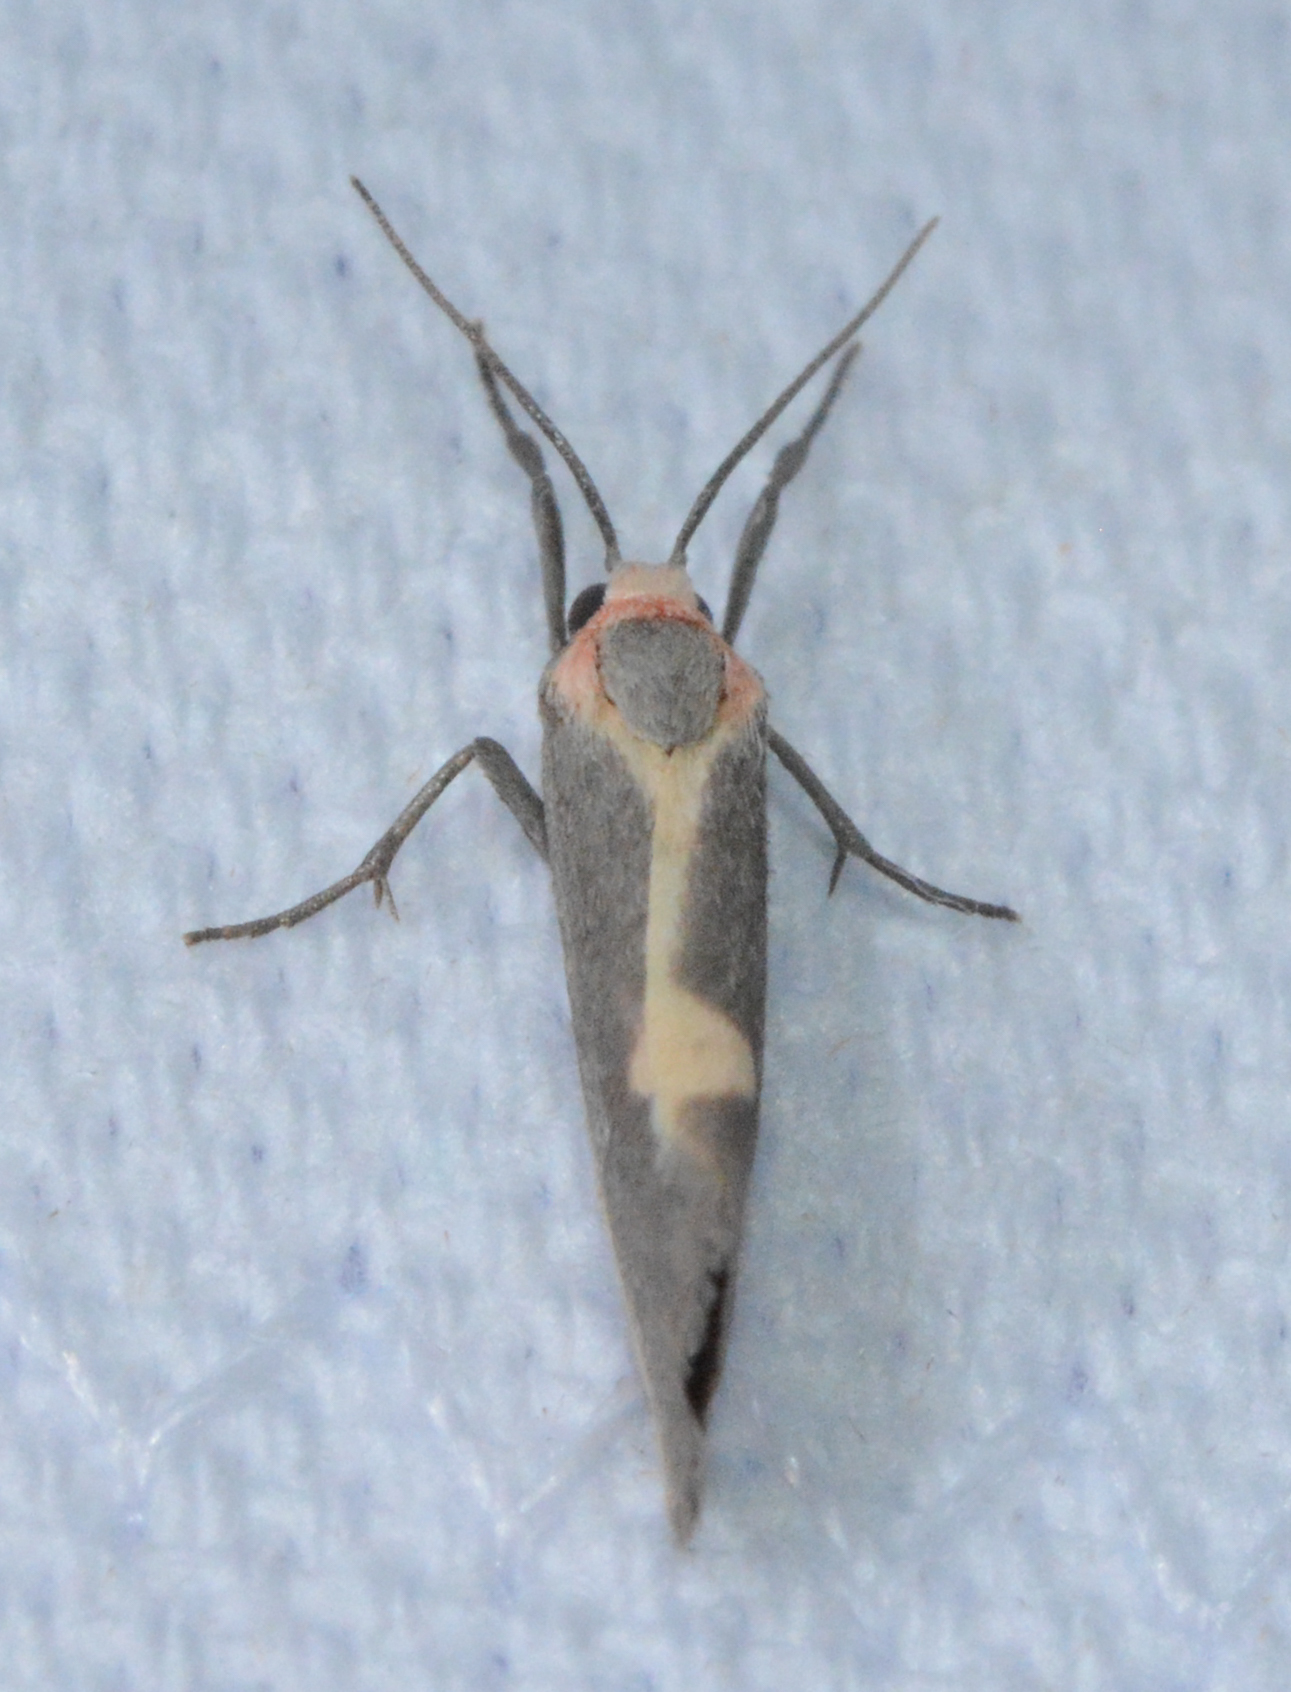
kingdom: Animalia
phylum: Arthropoda
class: Insecta
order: Lepidoptera
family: Erebidae
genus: Cisthene
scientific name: Cisthene plumbea
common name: Lead colored lichen moth
